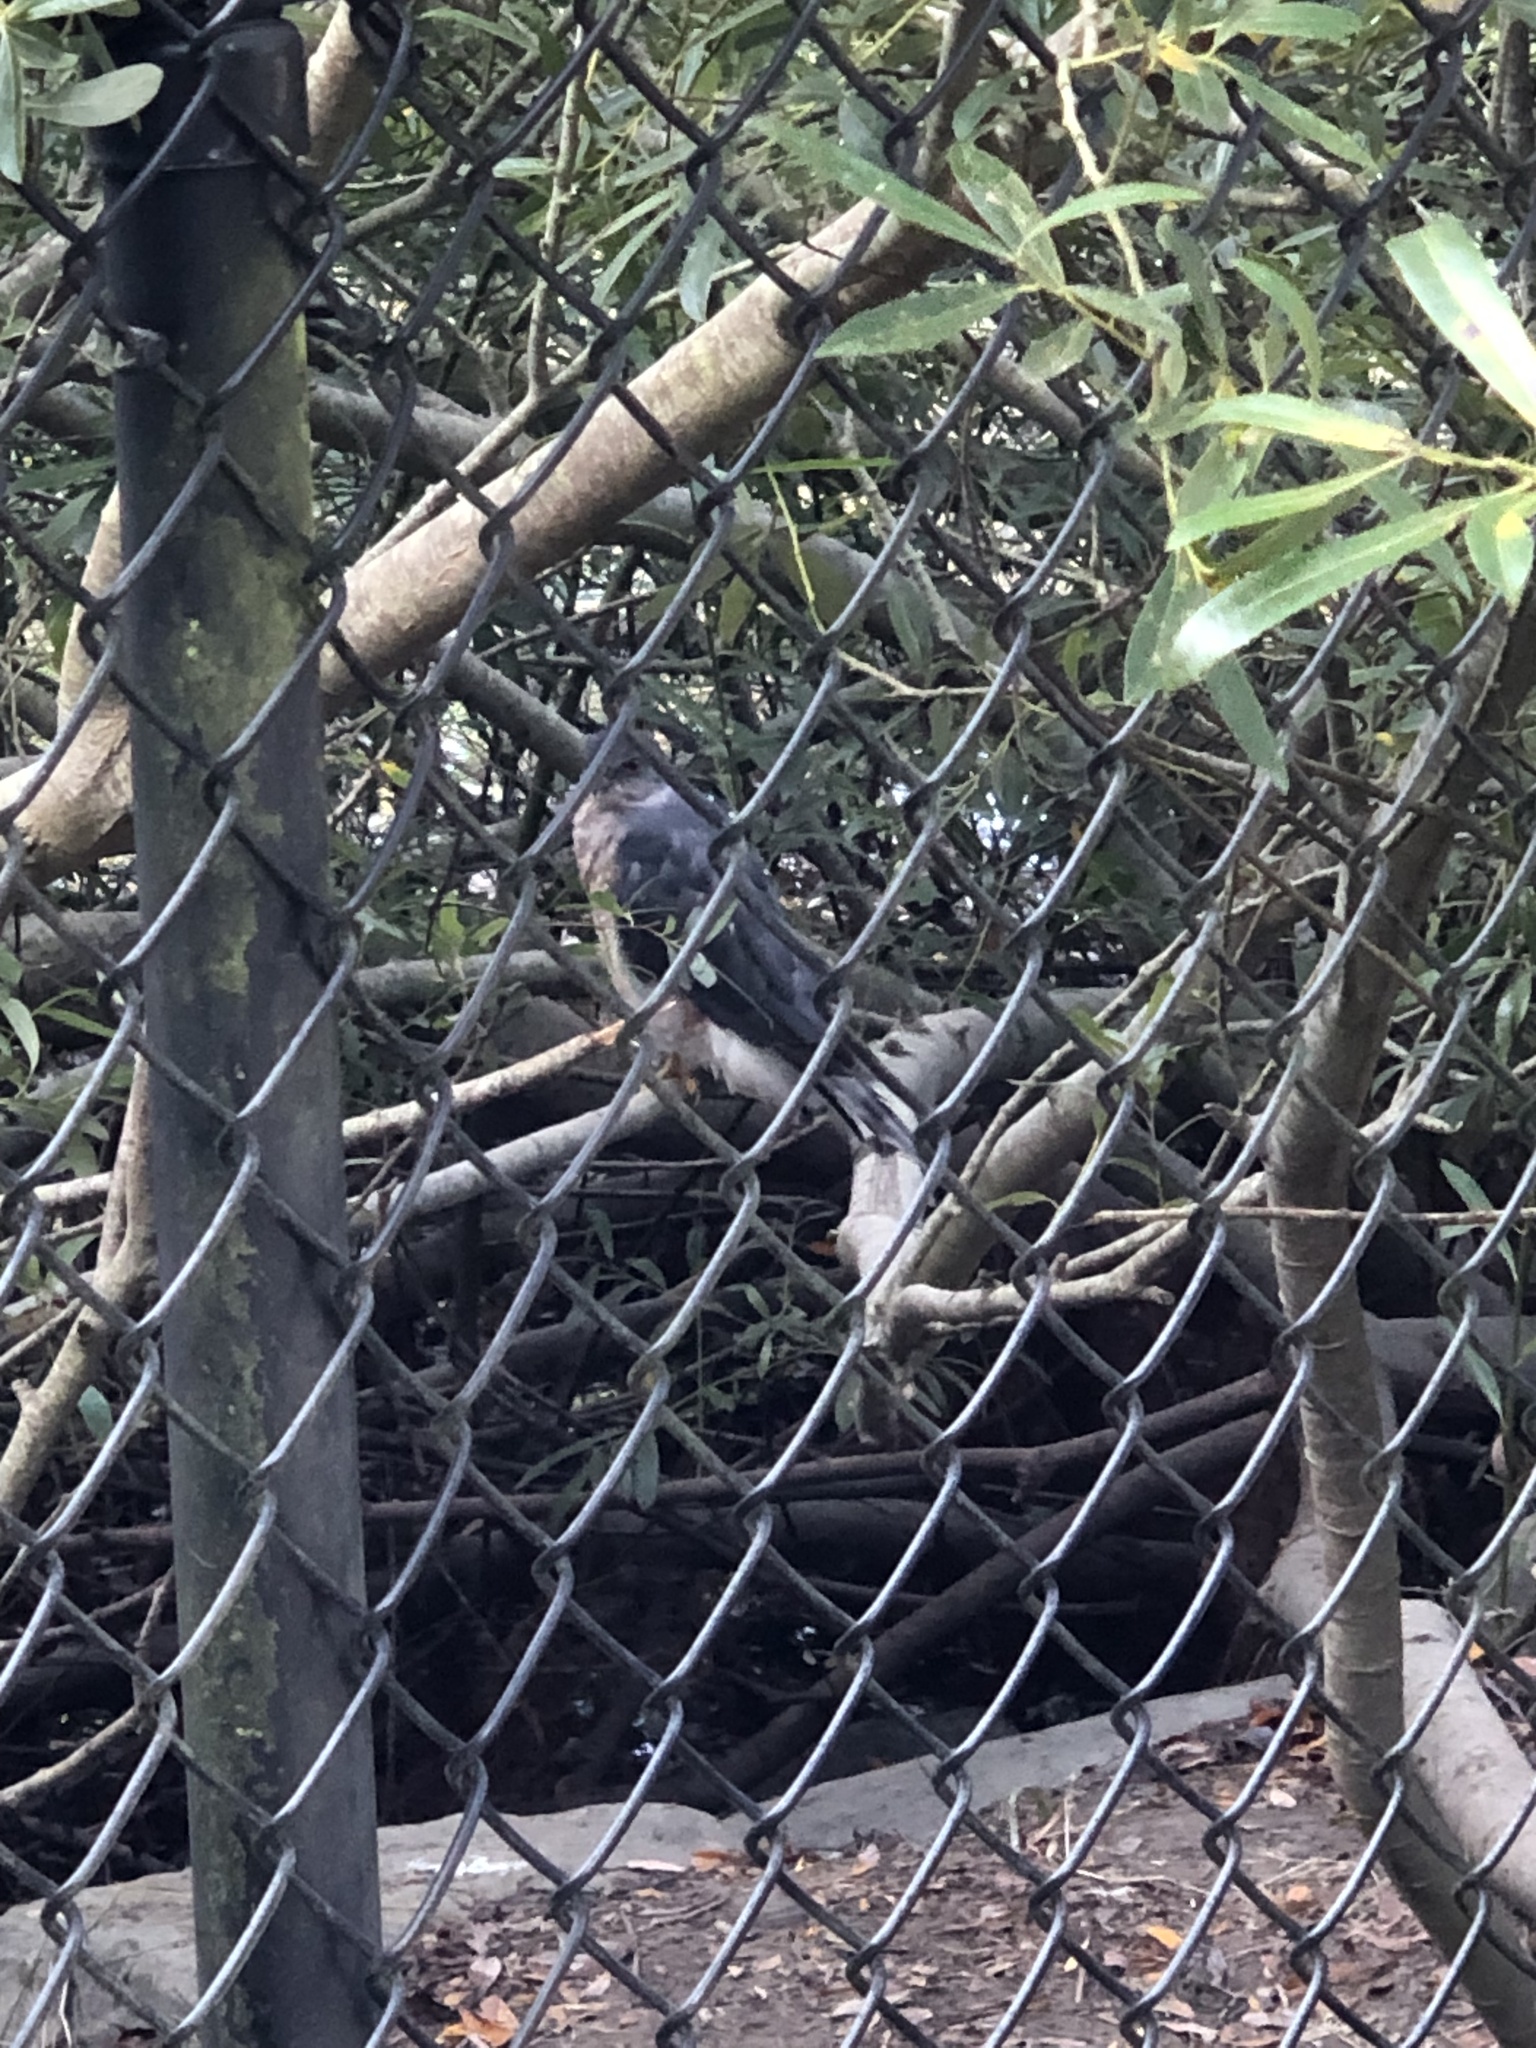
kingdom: Animalia
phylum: Chordata
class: Aves
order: Accipitriformes
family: Accipitridae
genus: Accipiter
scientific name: Accipiter cooperii
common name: Cooper's hawk
